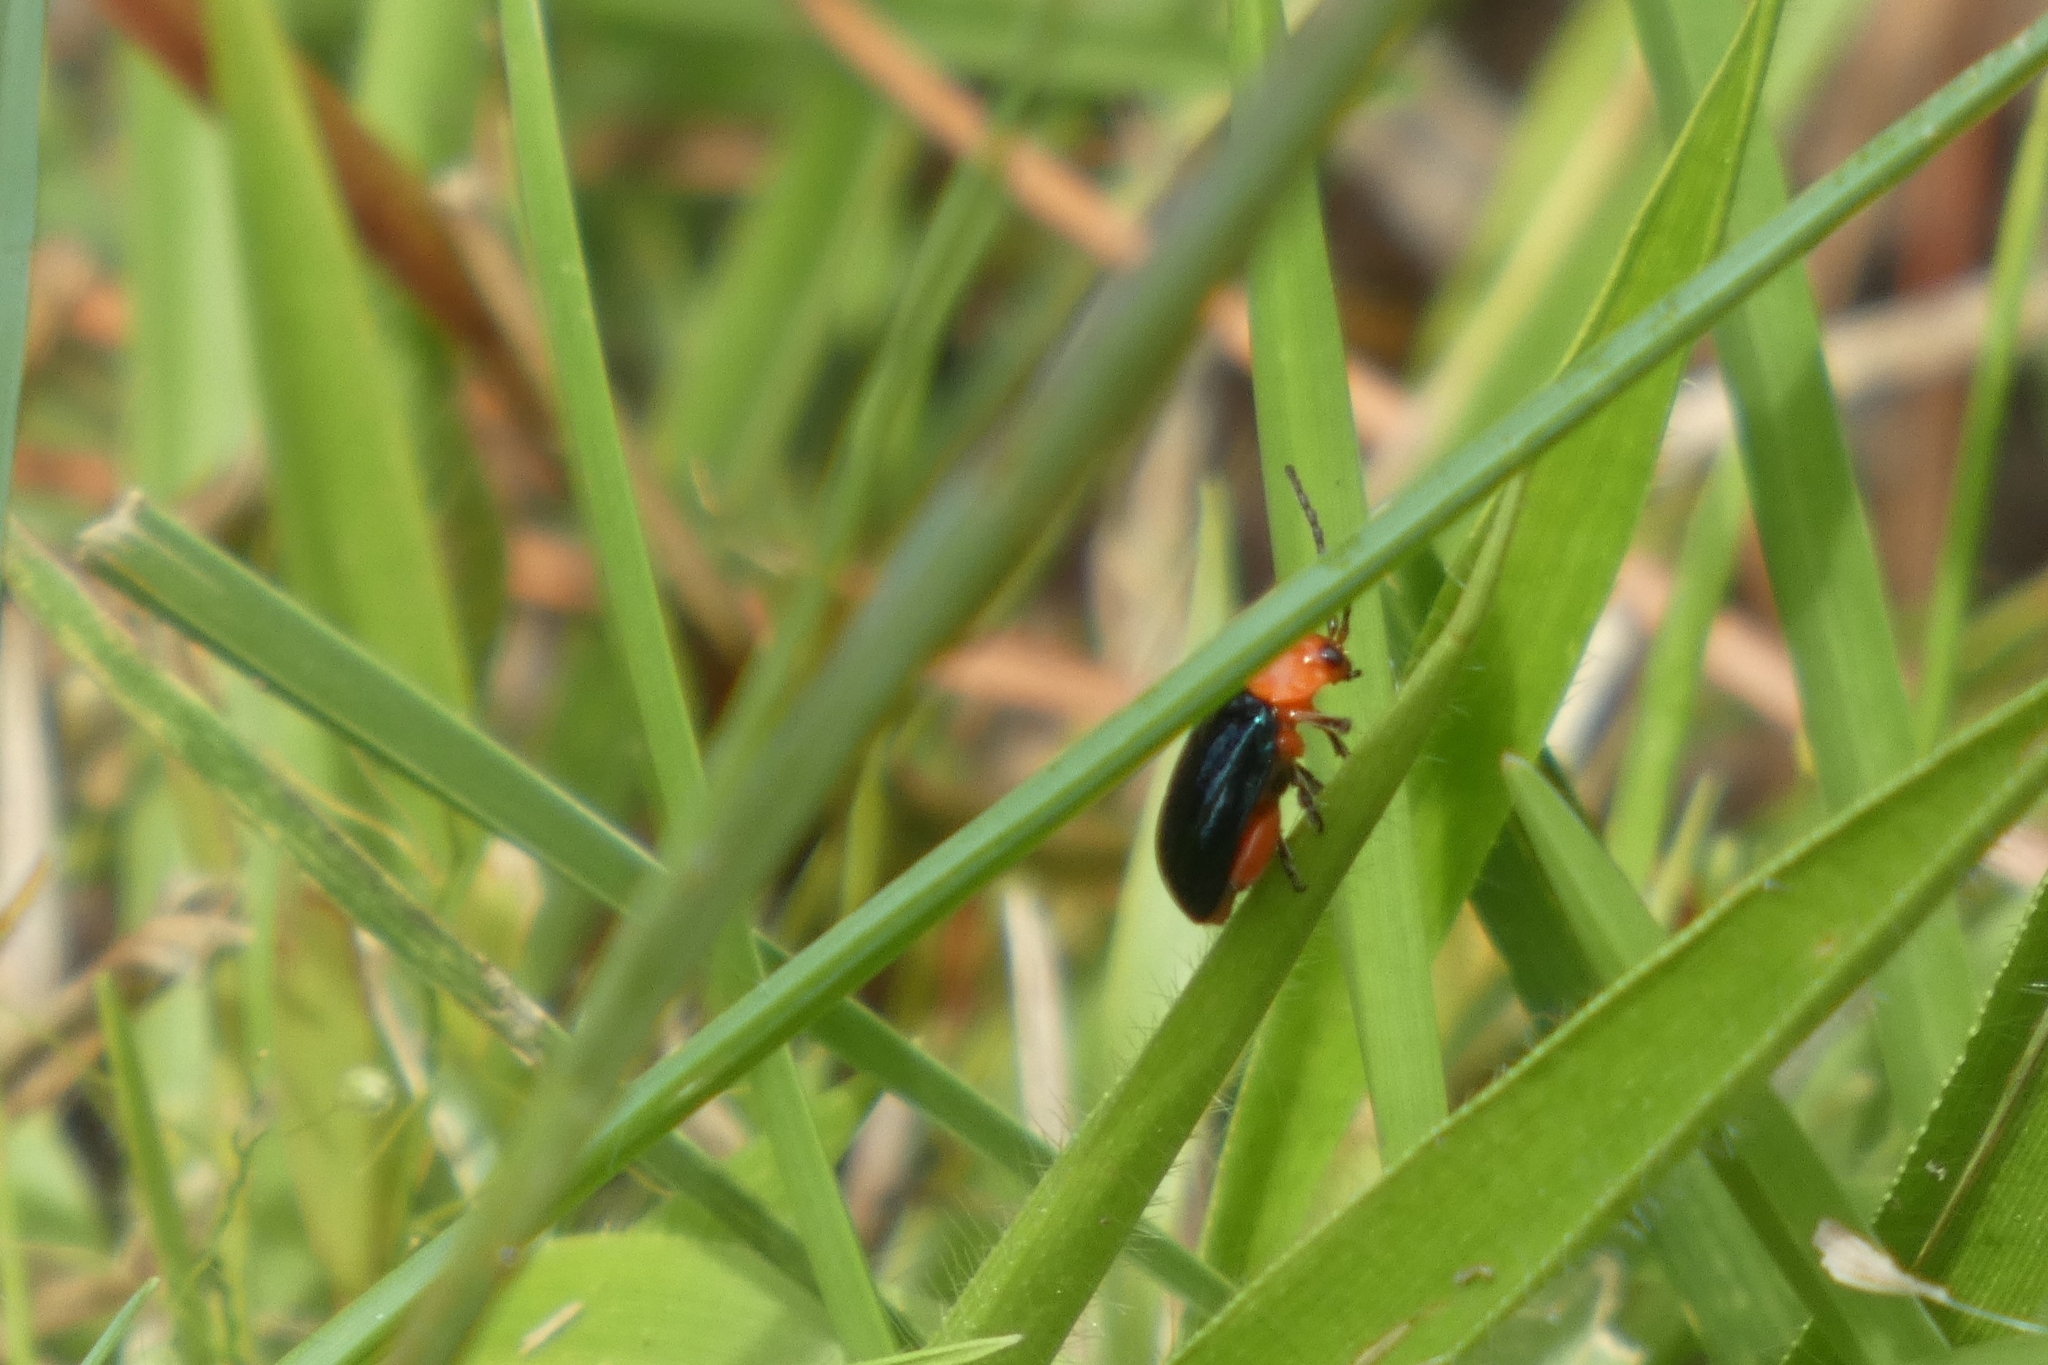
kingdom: Animalia
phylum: Arthropoda
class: Insecta
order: Coleoptera
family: Chrysomelidae
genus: Asphaera
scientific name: Asphaera lustrans
